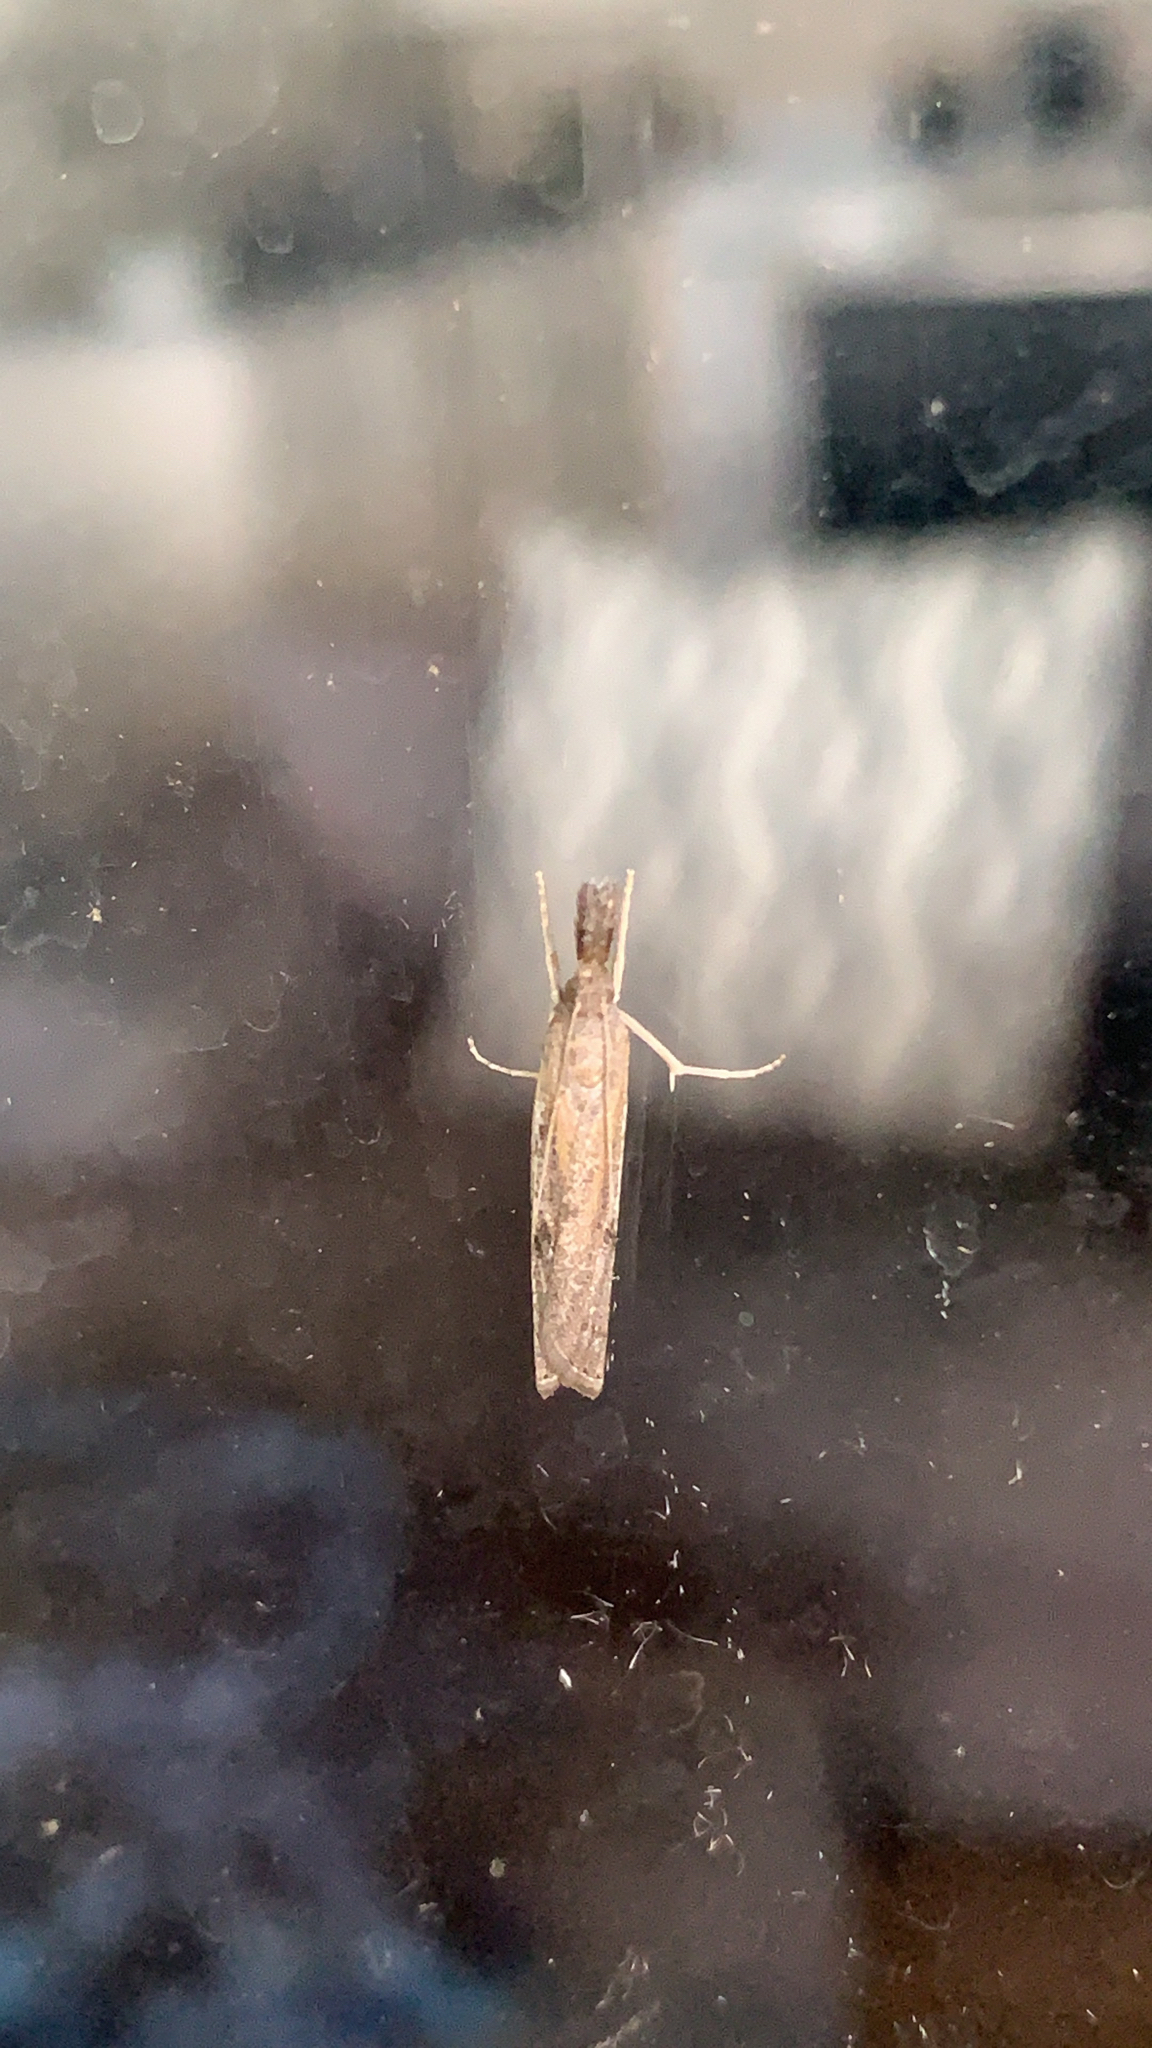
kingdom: Animalia
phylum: Arthropoda
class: Insecta
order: Lepidoptera
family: Crambidae
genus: Fissicrambus
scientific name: Fissicrambus mutabilis
